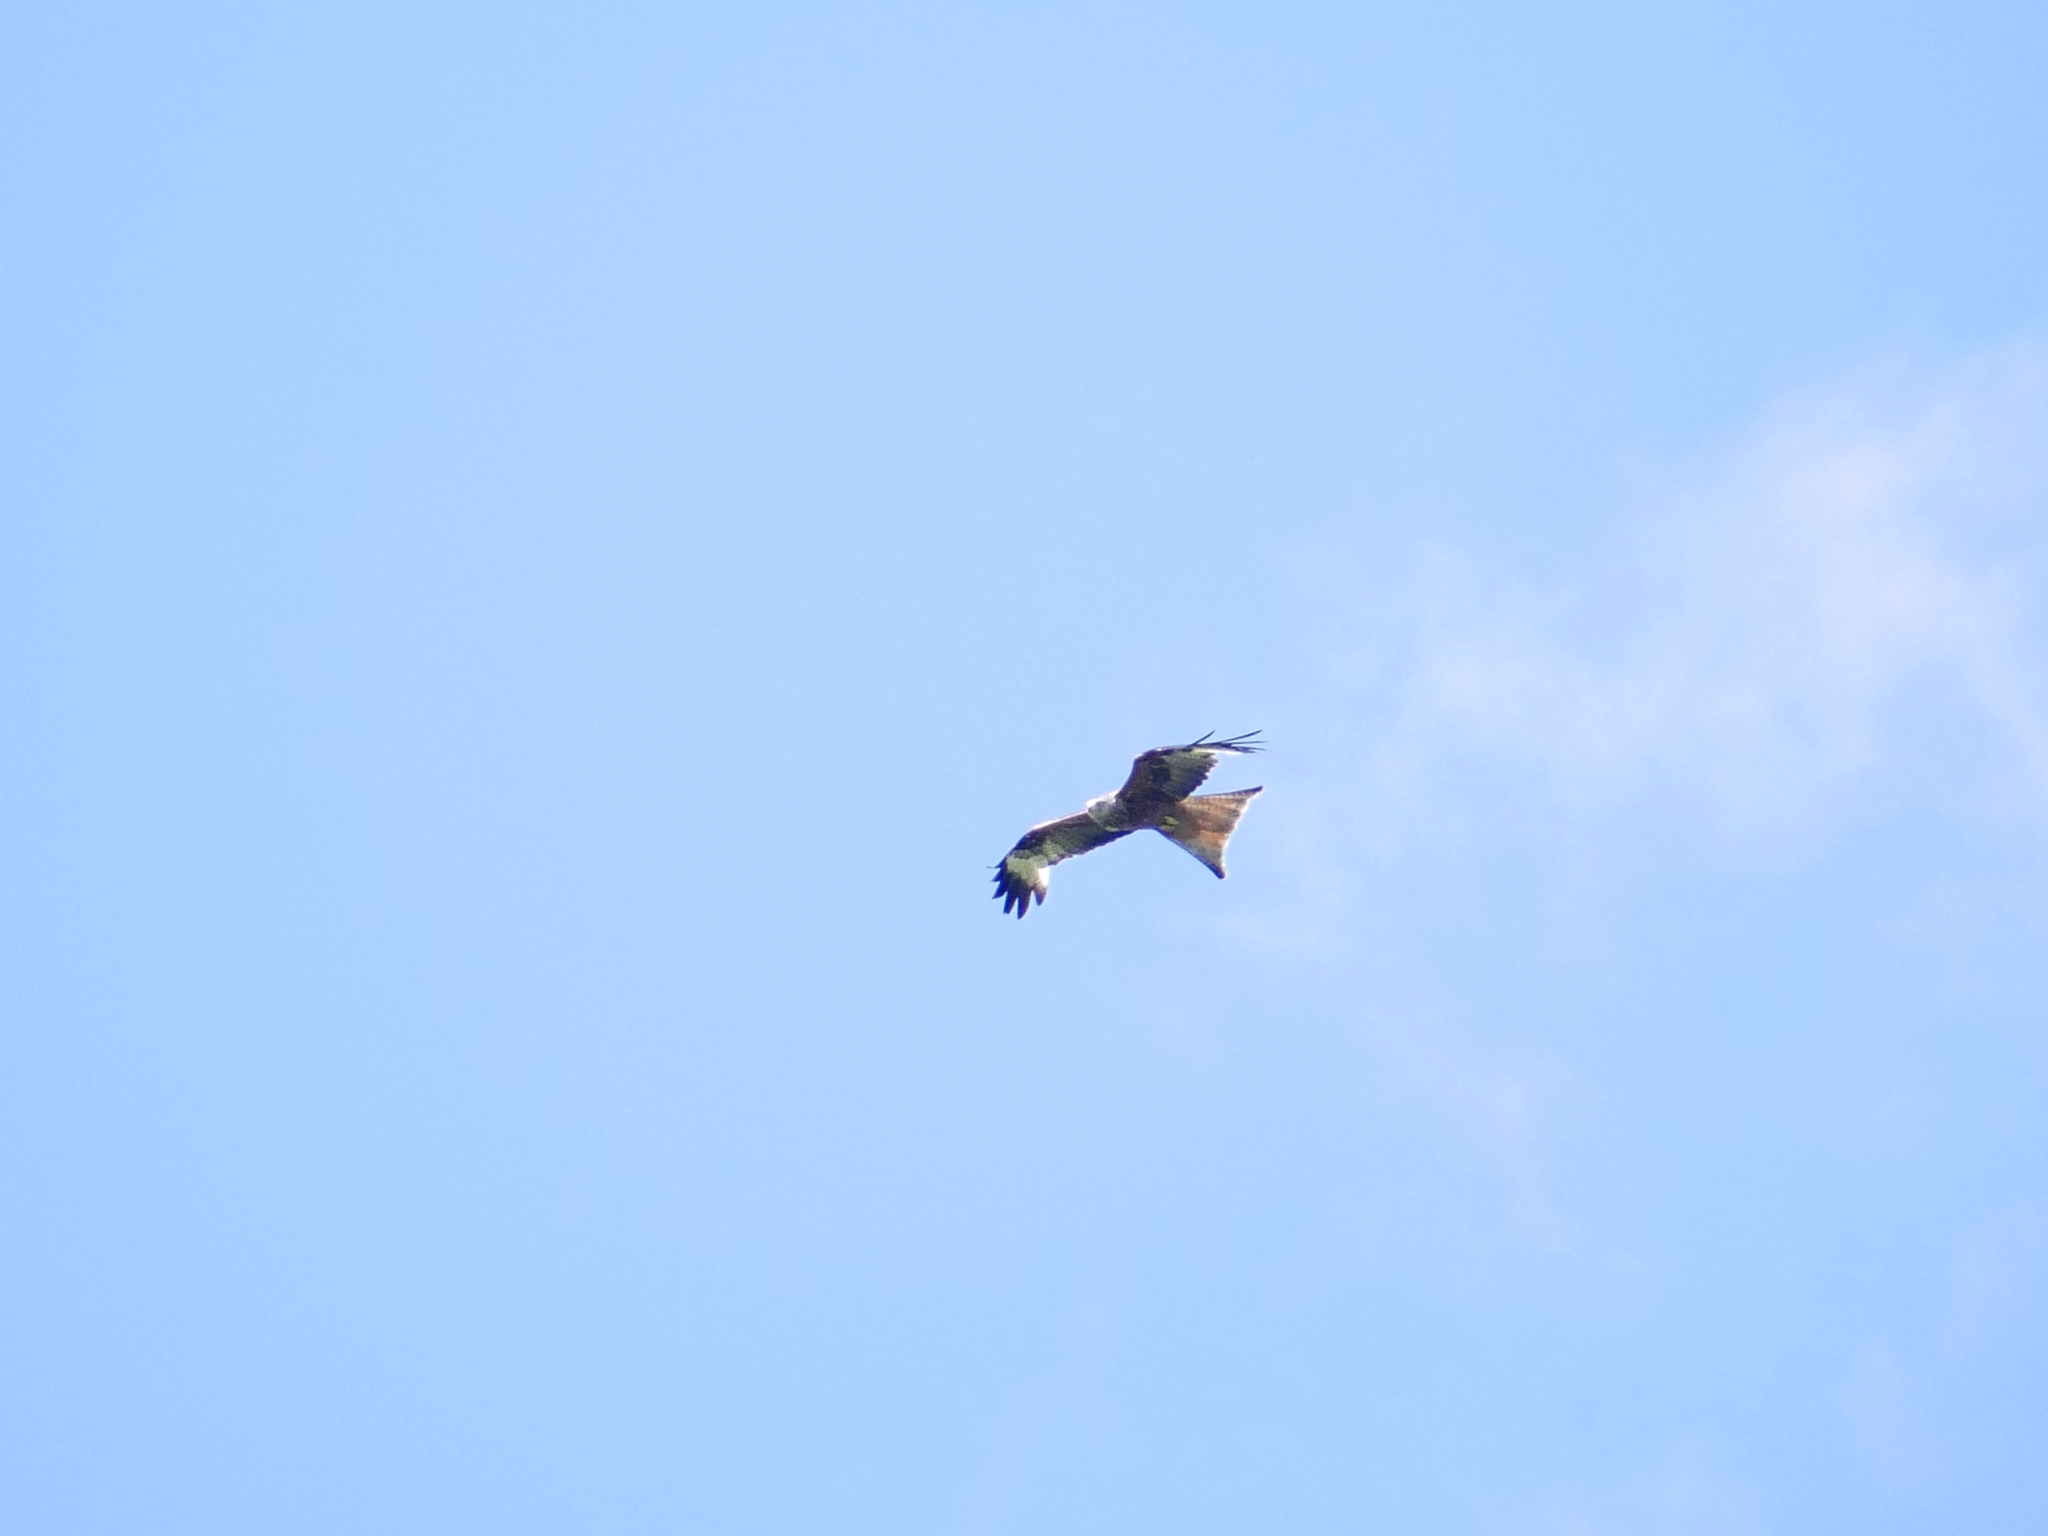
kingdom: Animalia
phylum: Chordata
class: Aves
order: Accipitriformes
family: Accipitridae
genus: Milvus
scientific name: Milvus milvus
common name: Red kite
